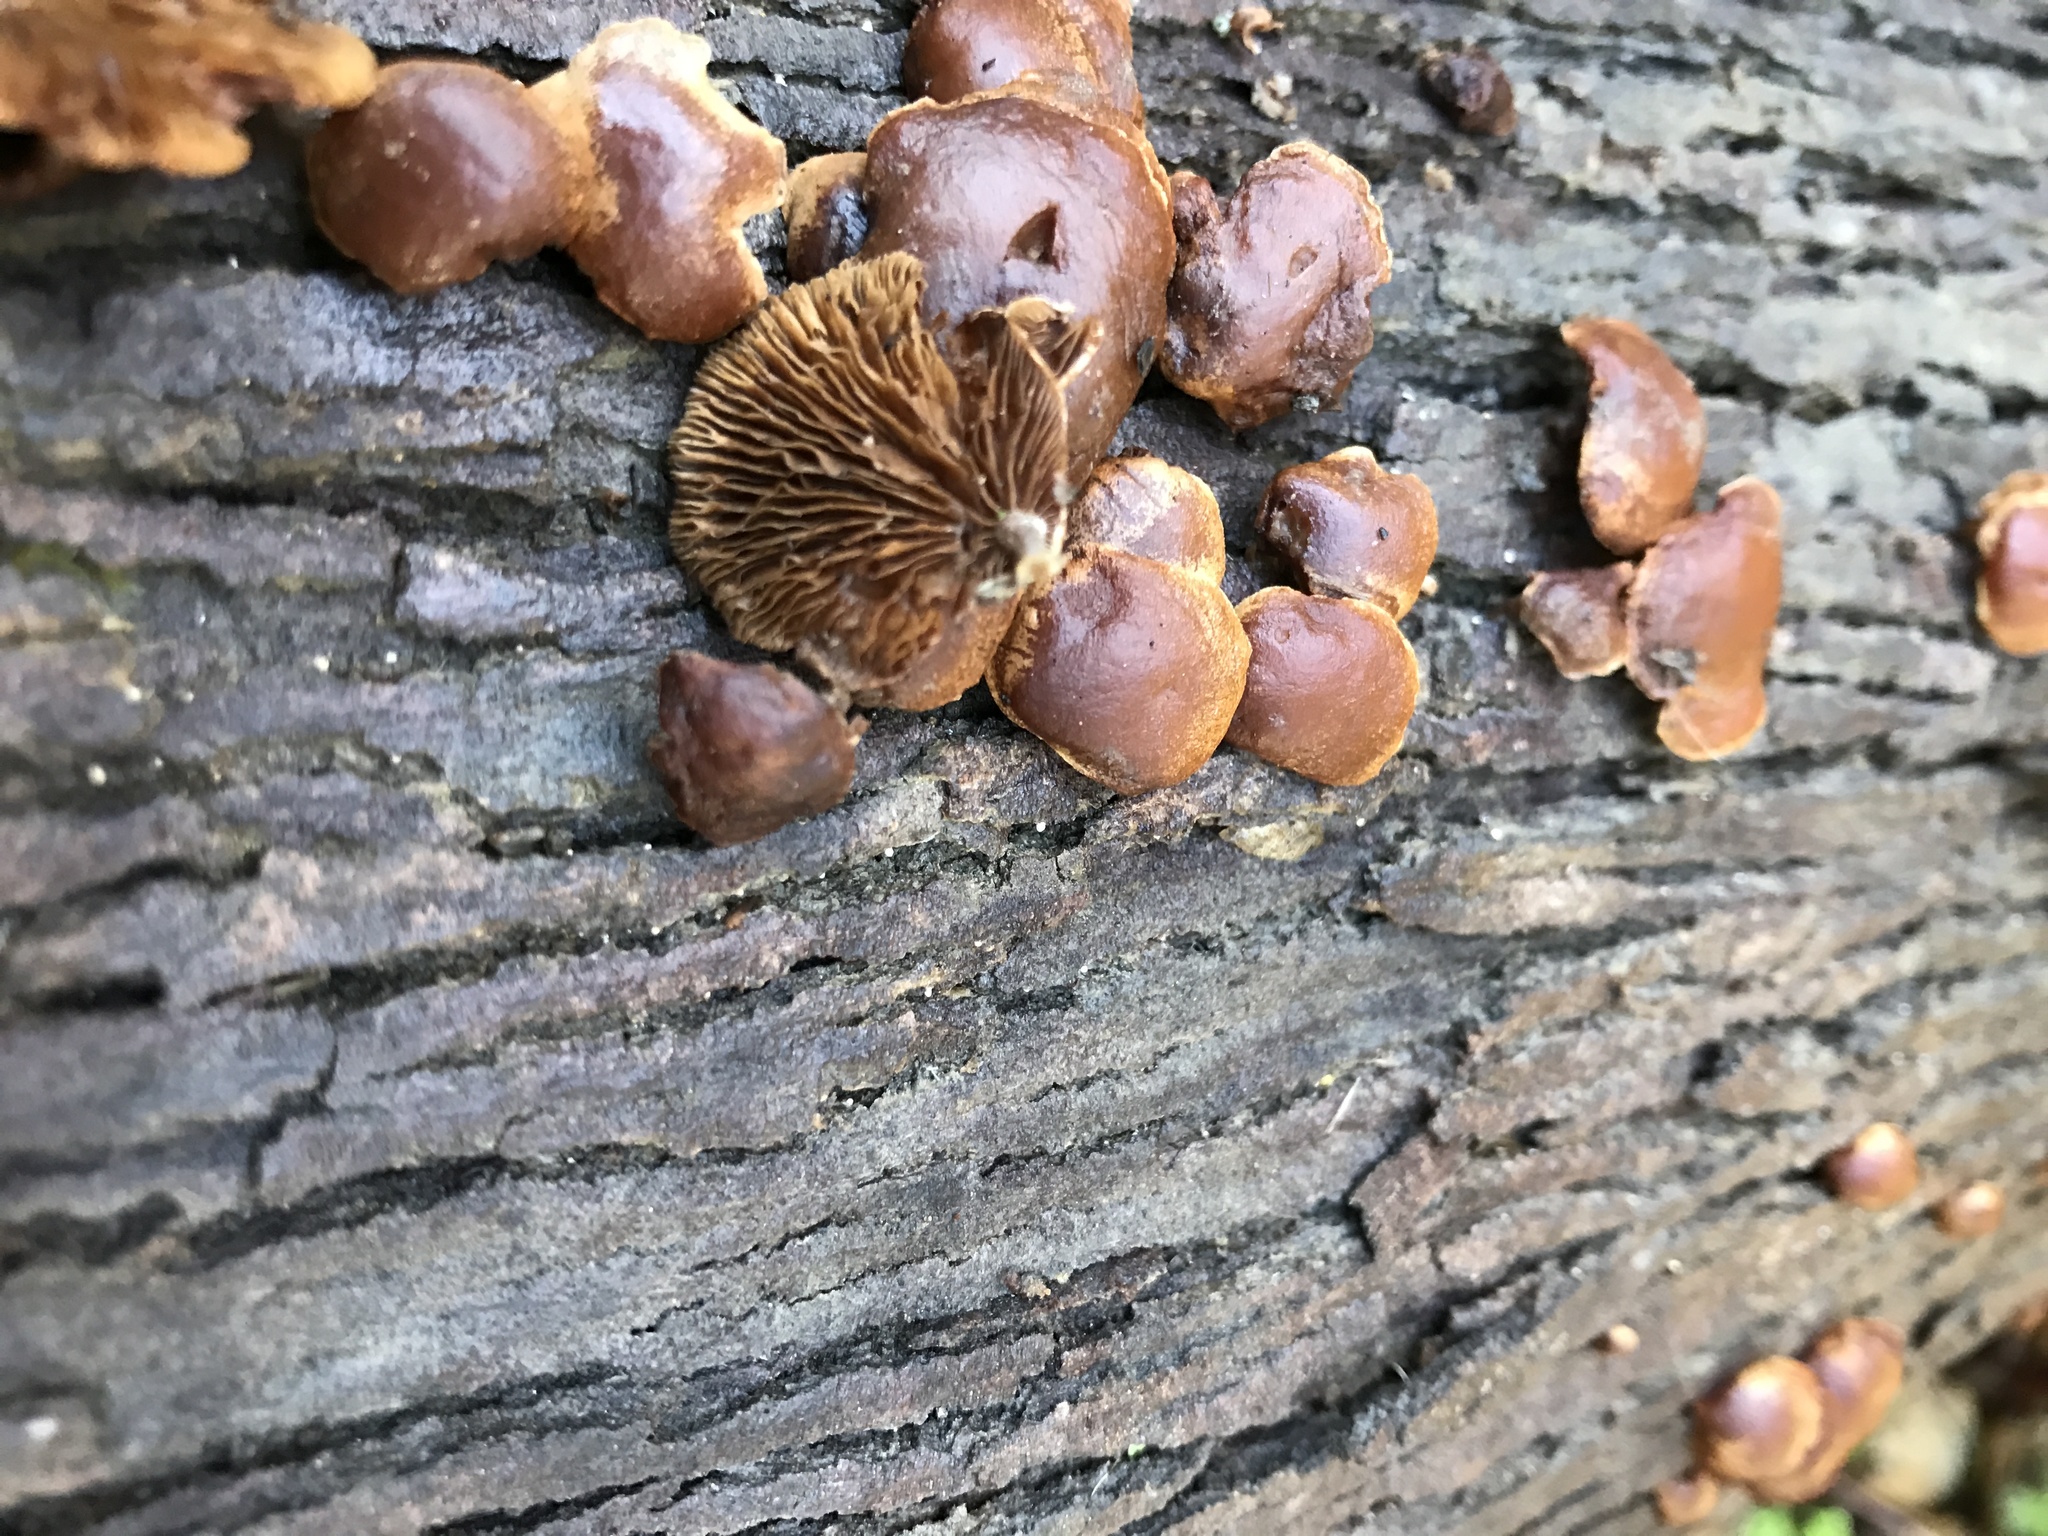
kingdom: Fungi
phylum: Basidiomycota
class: Agaricomycetes
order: Agaricales
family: Strophariaceae
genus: Deconica
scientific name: Deconica horizontalis
